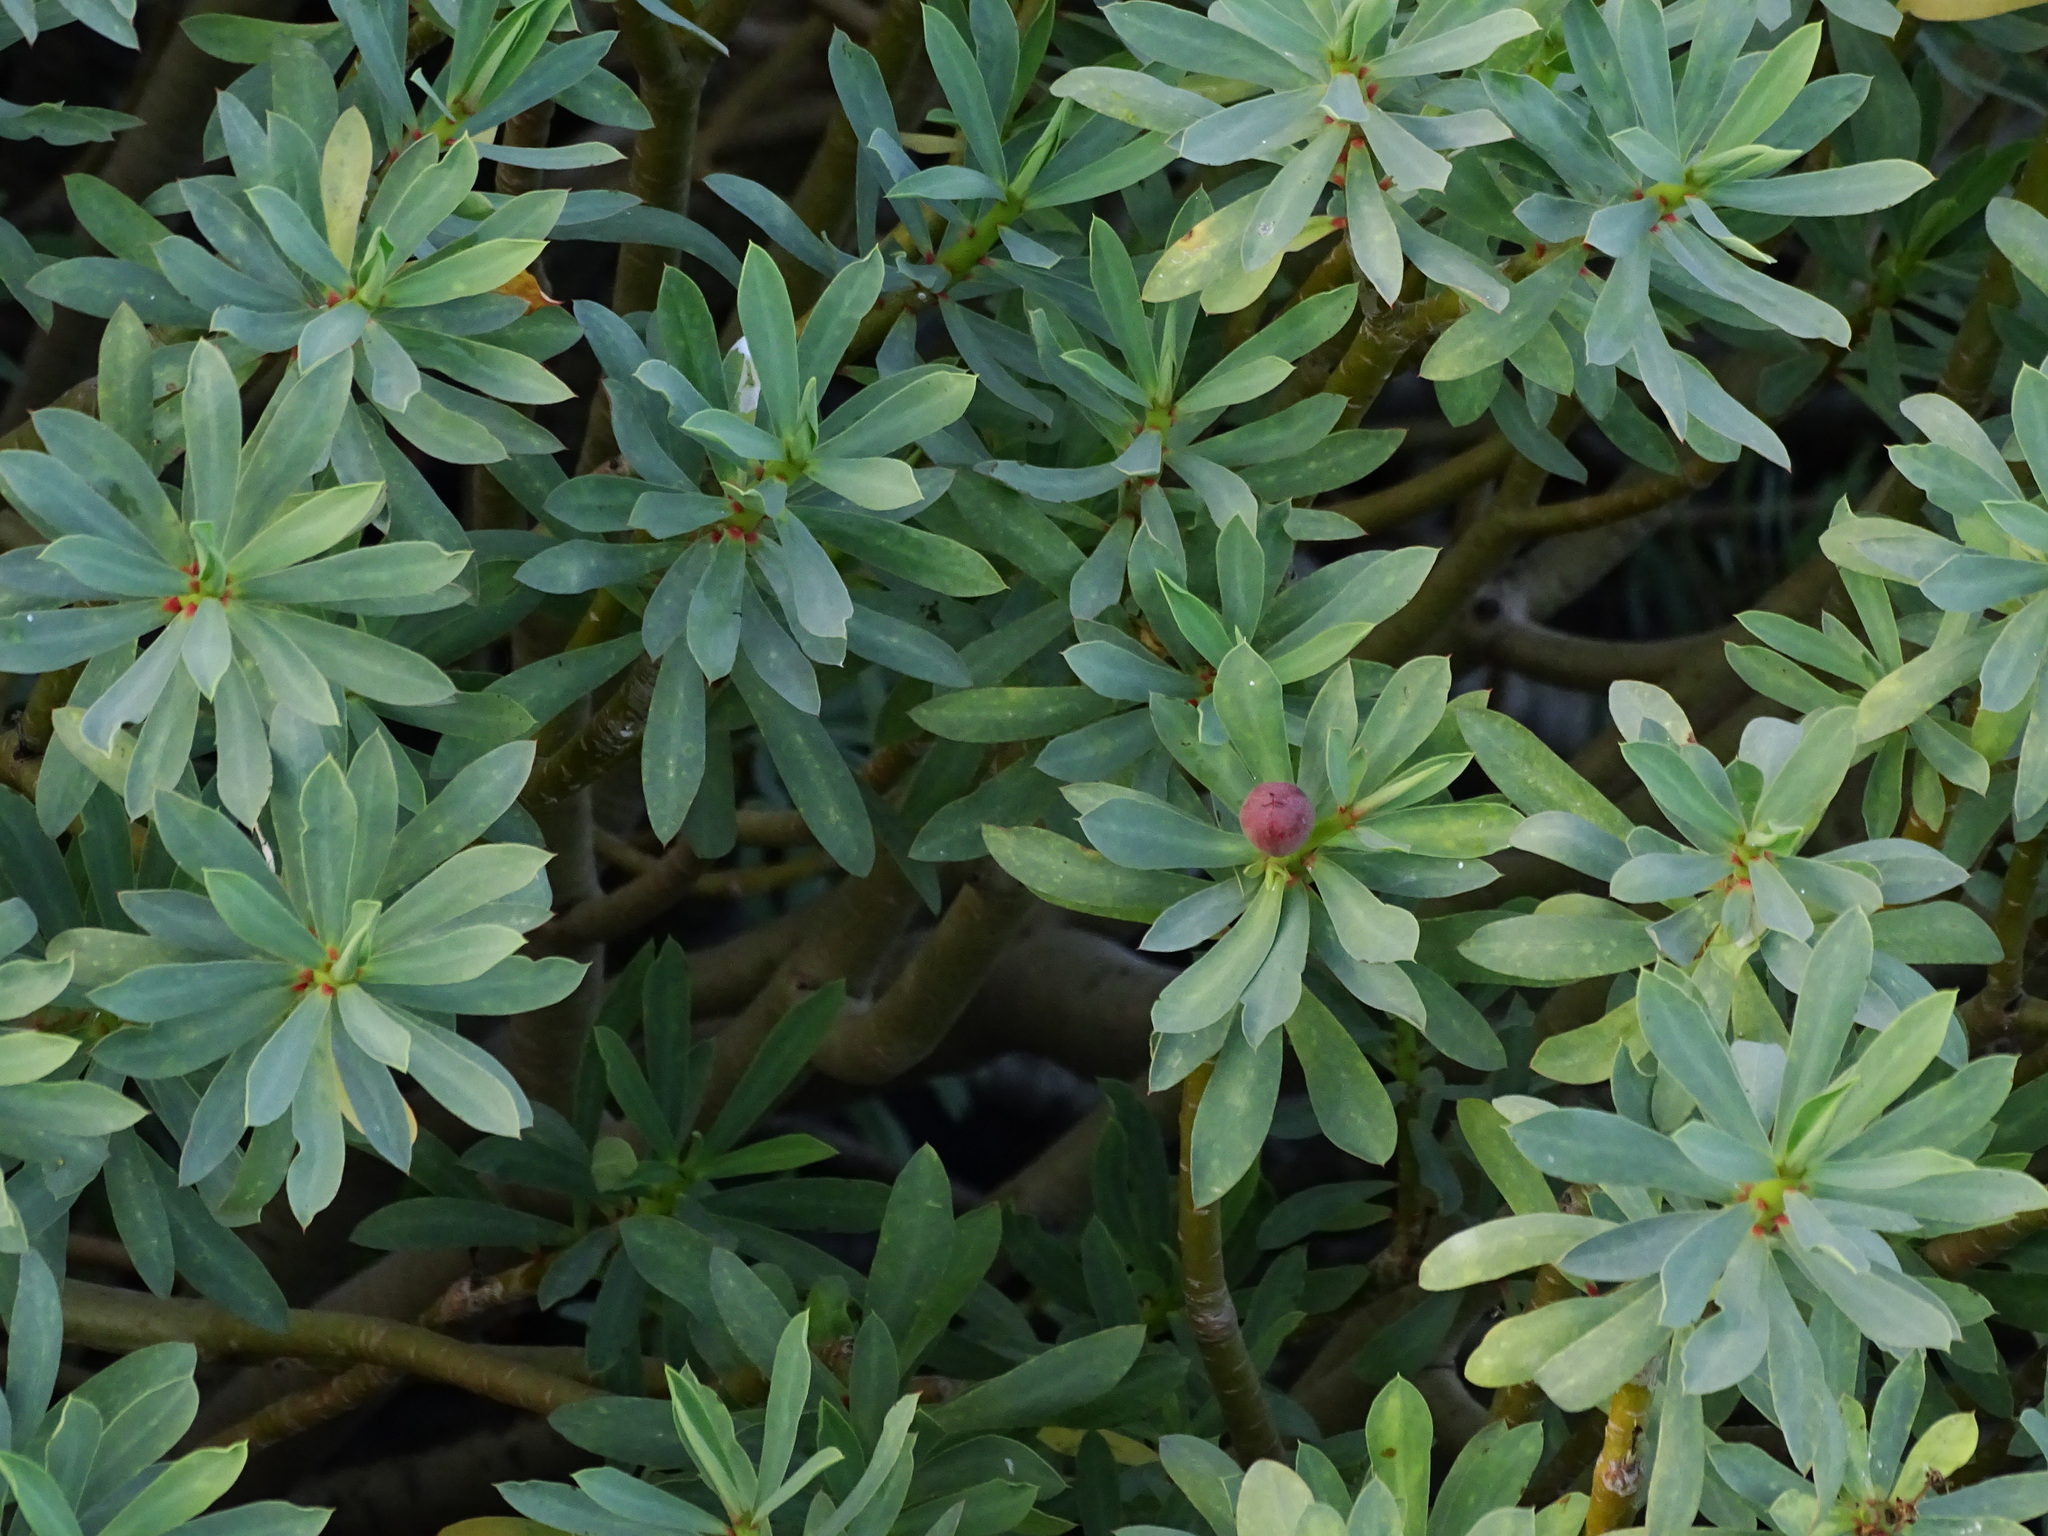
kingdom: Plantae
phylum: Tracheophyta
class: Magnoliopsida
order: Malpighiales
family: Euphorbiaceae
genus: Euphorbia
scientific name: Euphorbia balsamifera
